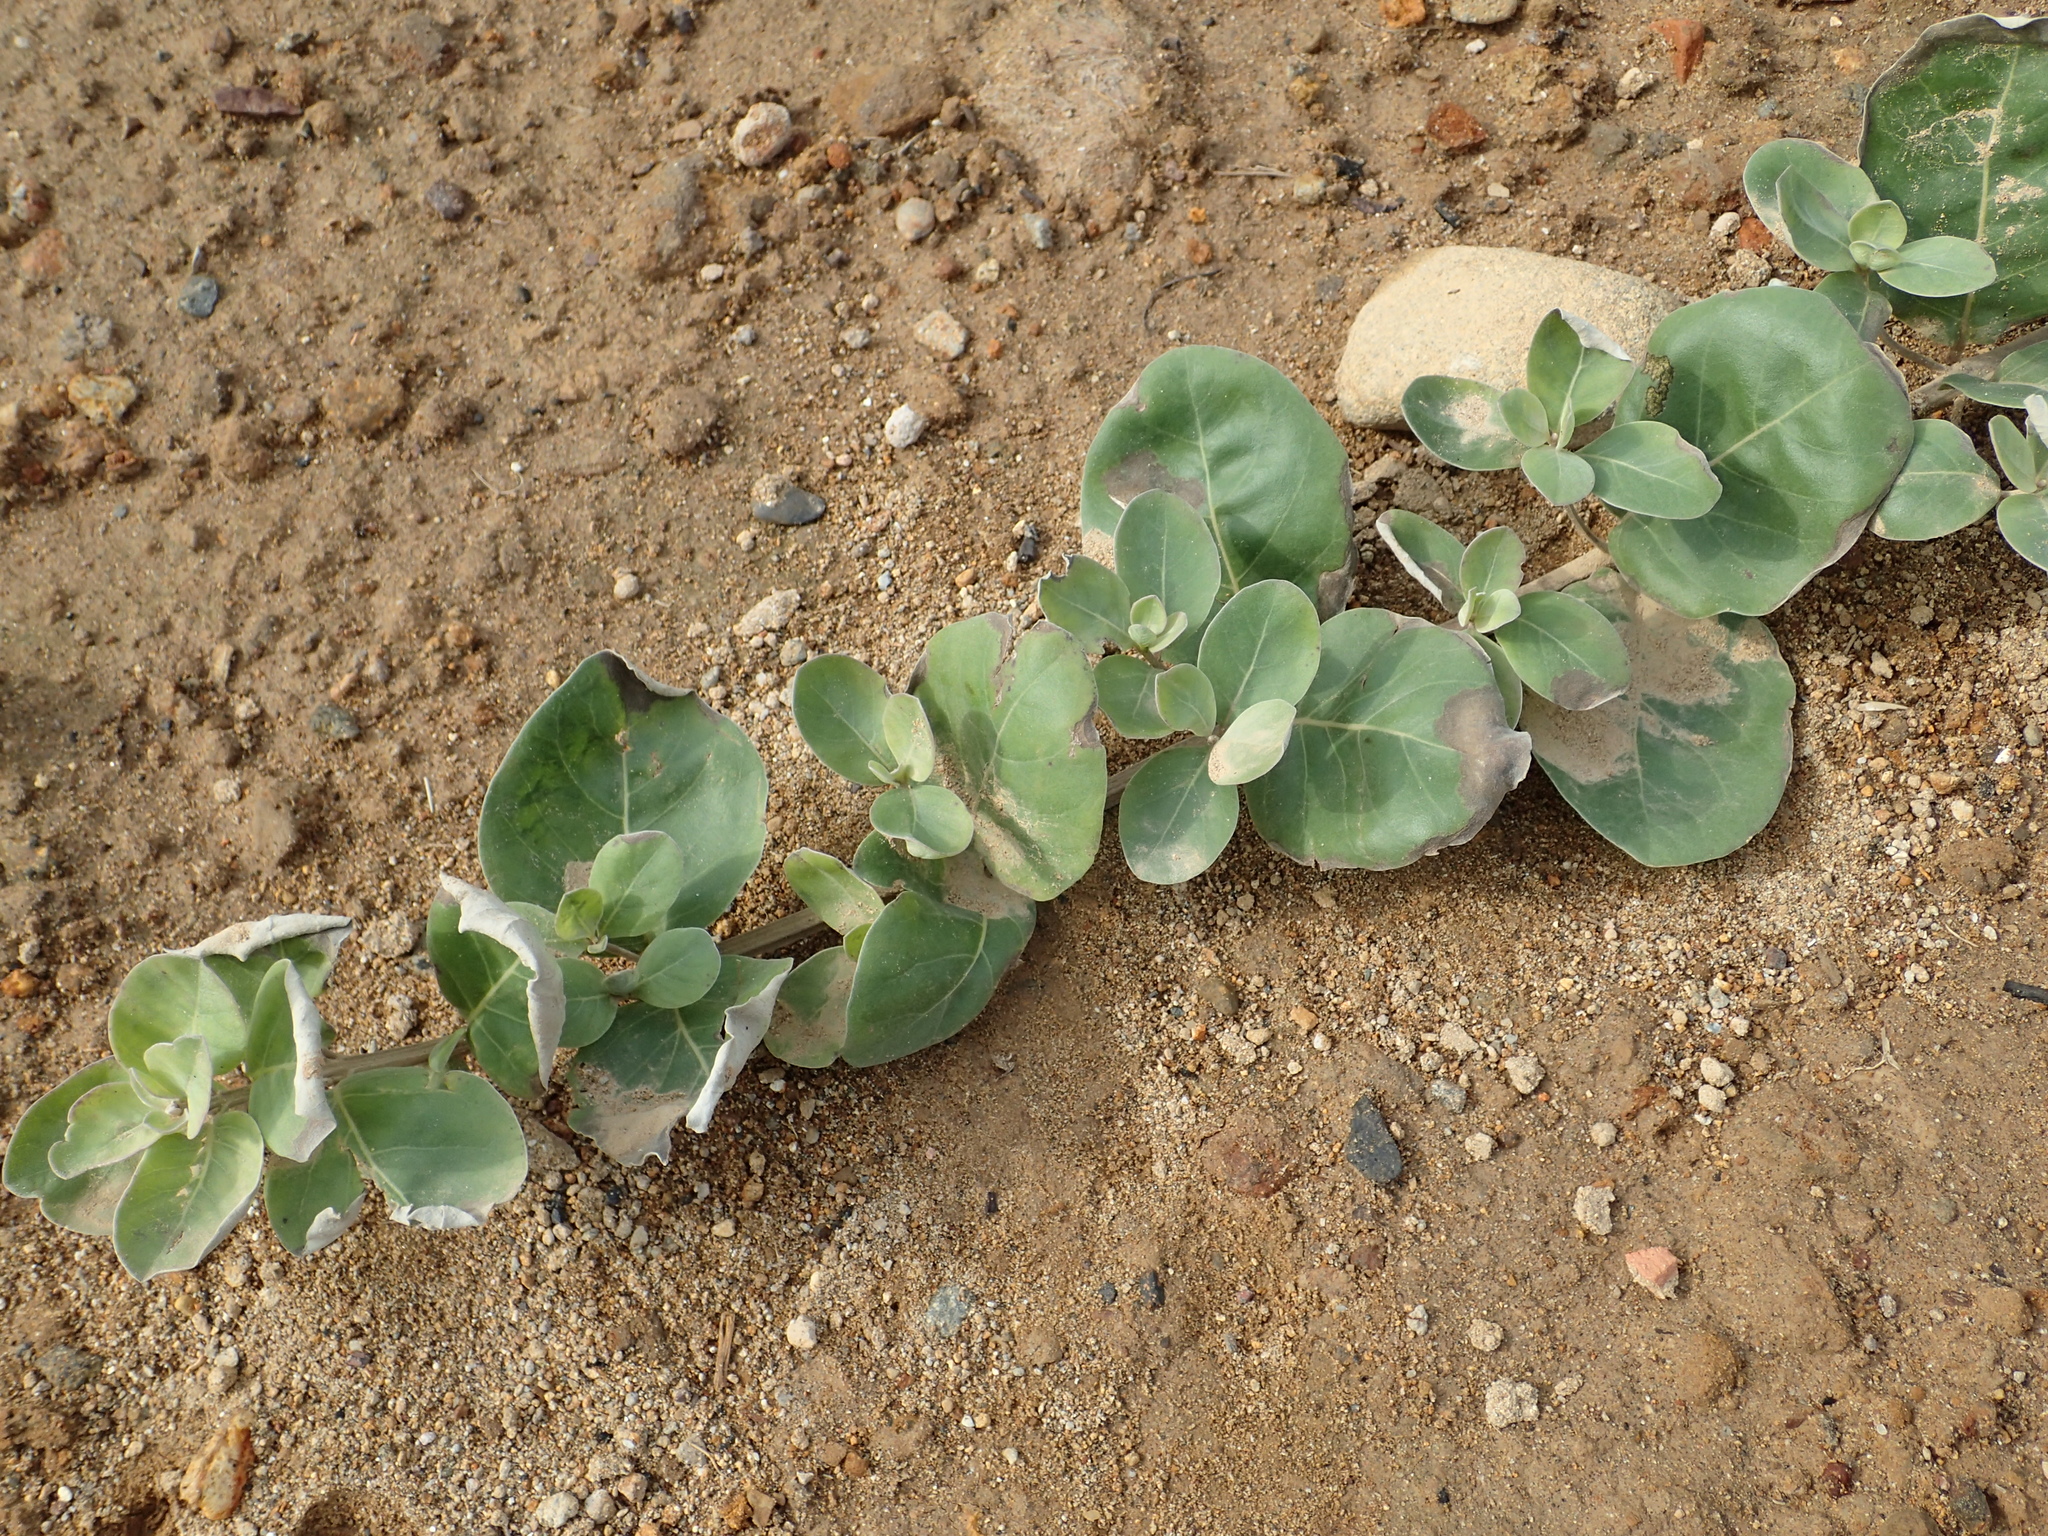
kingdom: Plantae
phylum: Tracheophyta
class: Magnoliopsida
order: Lamiales
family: Lamiaceae
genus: Vitex
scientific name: Vitex rotundifolia
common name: Beach vitex
